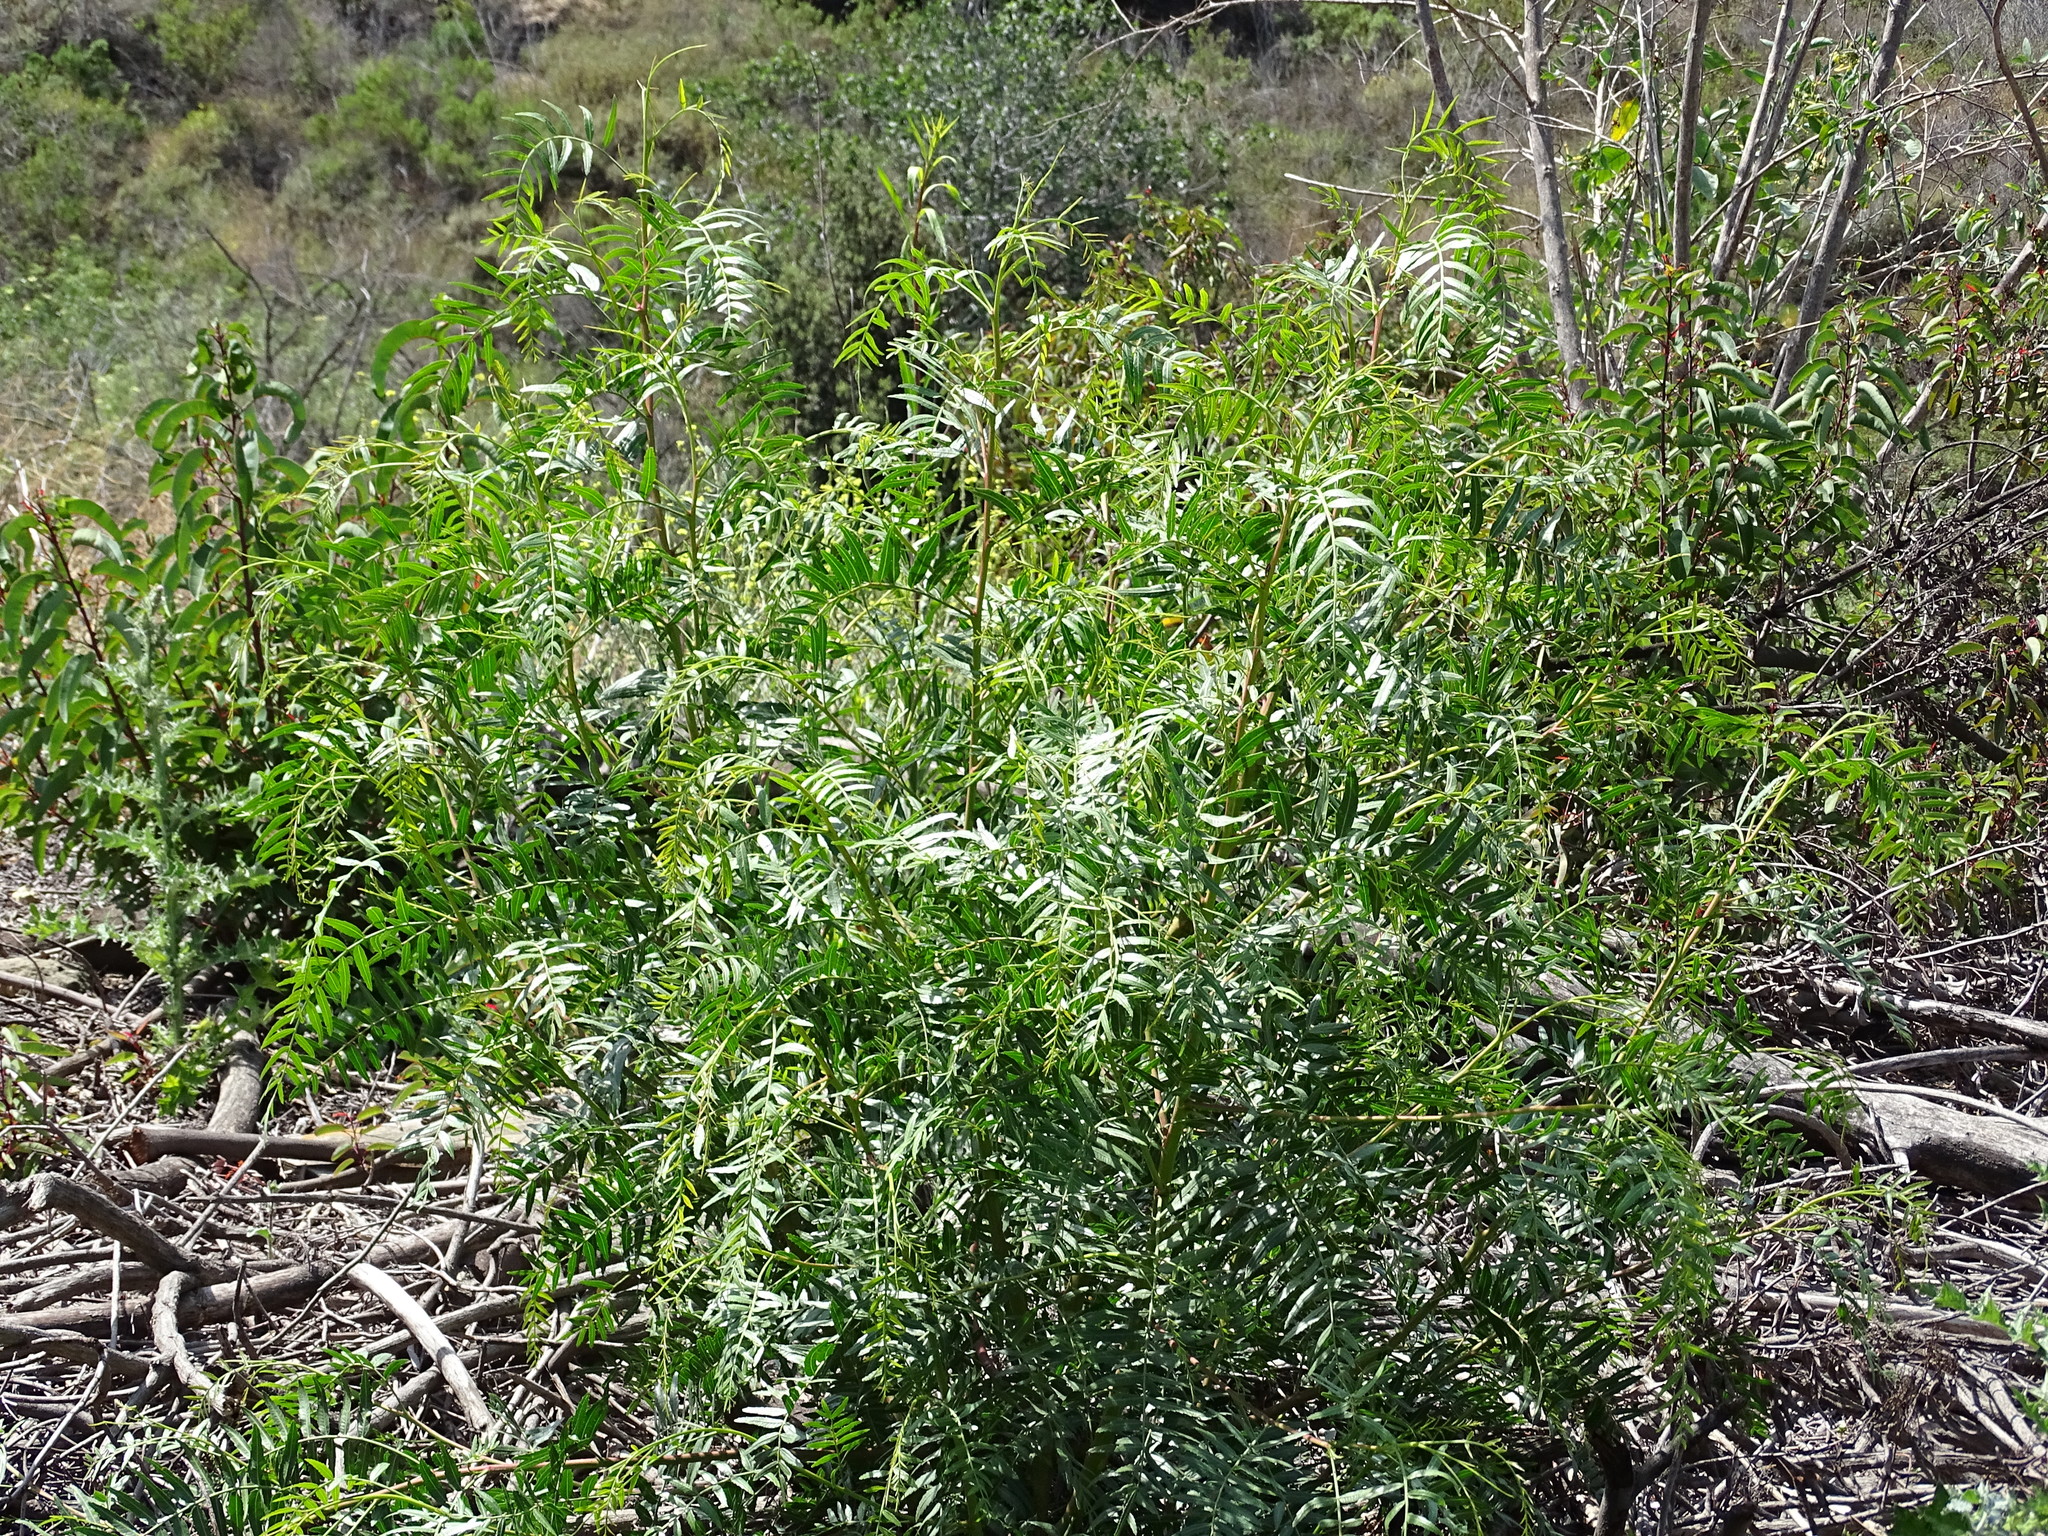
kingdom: Plantae
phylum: Tracheophyta
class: Magnoliopsida
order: Sapindales
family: Anacardiaceae
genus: Schinus
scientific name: Schinus molle
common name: Peruvian peppertree
